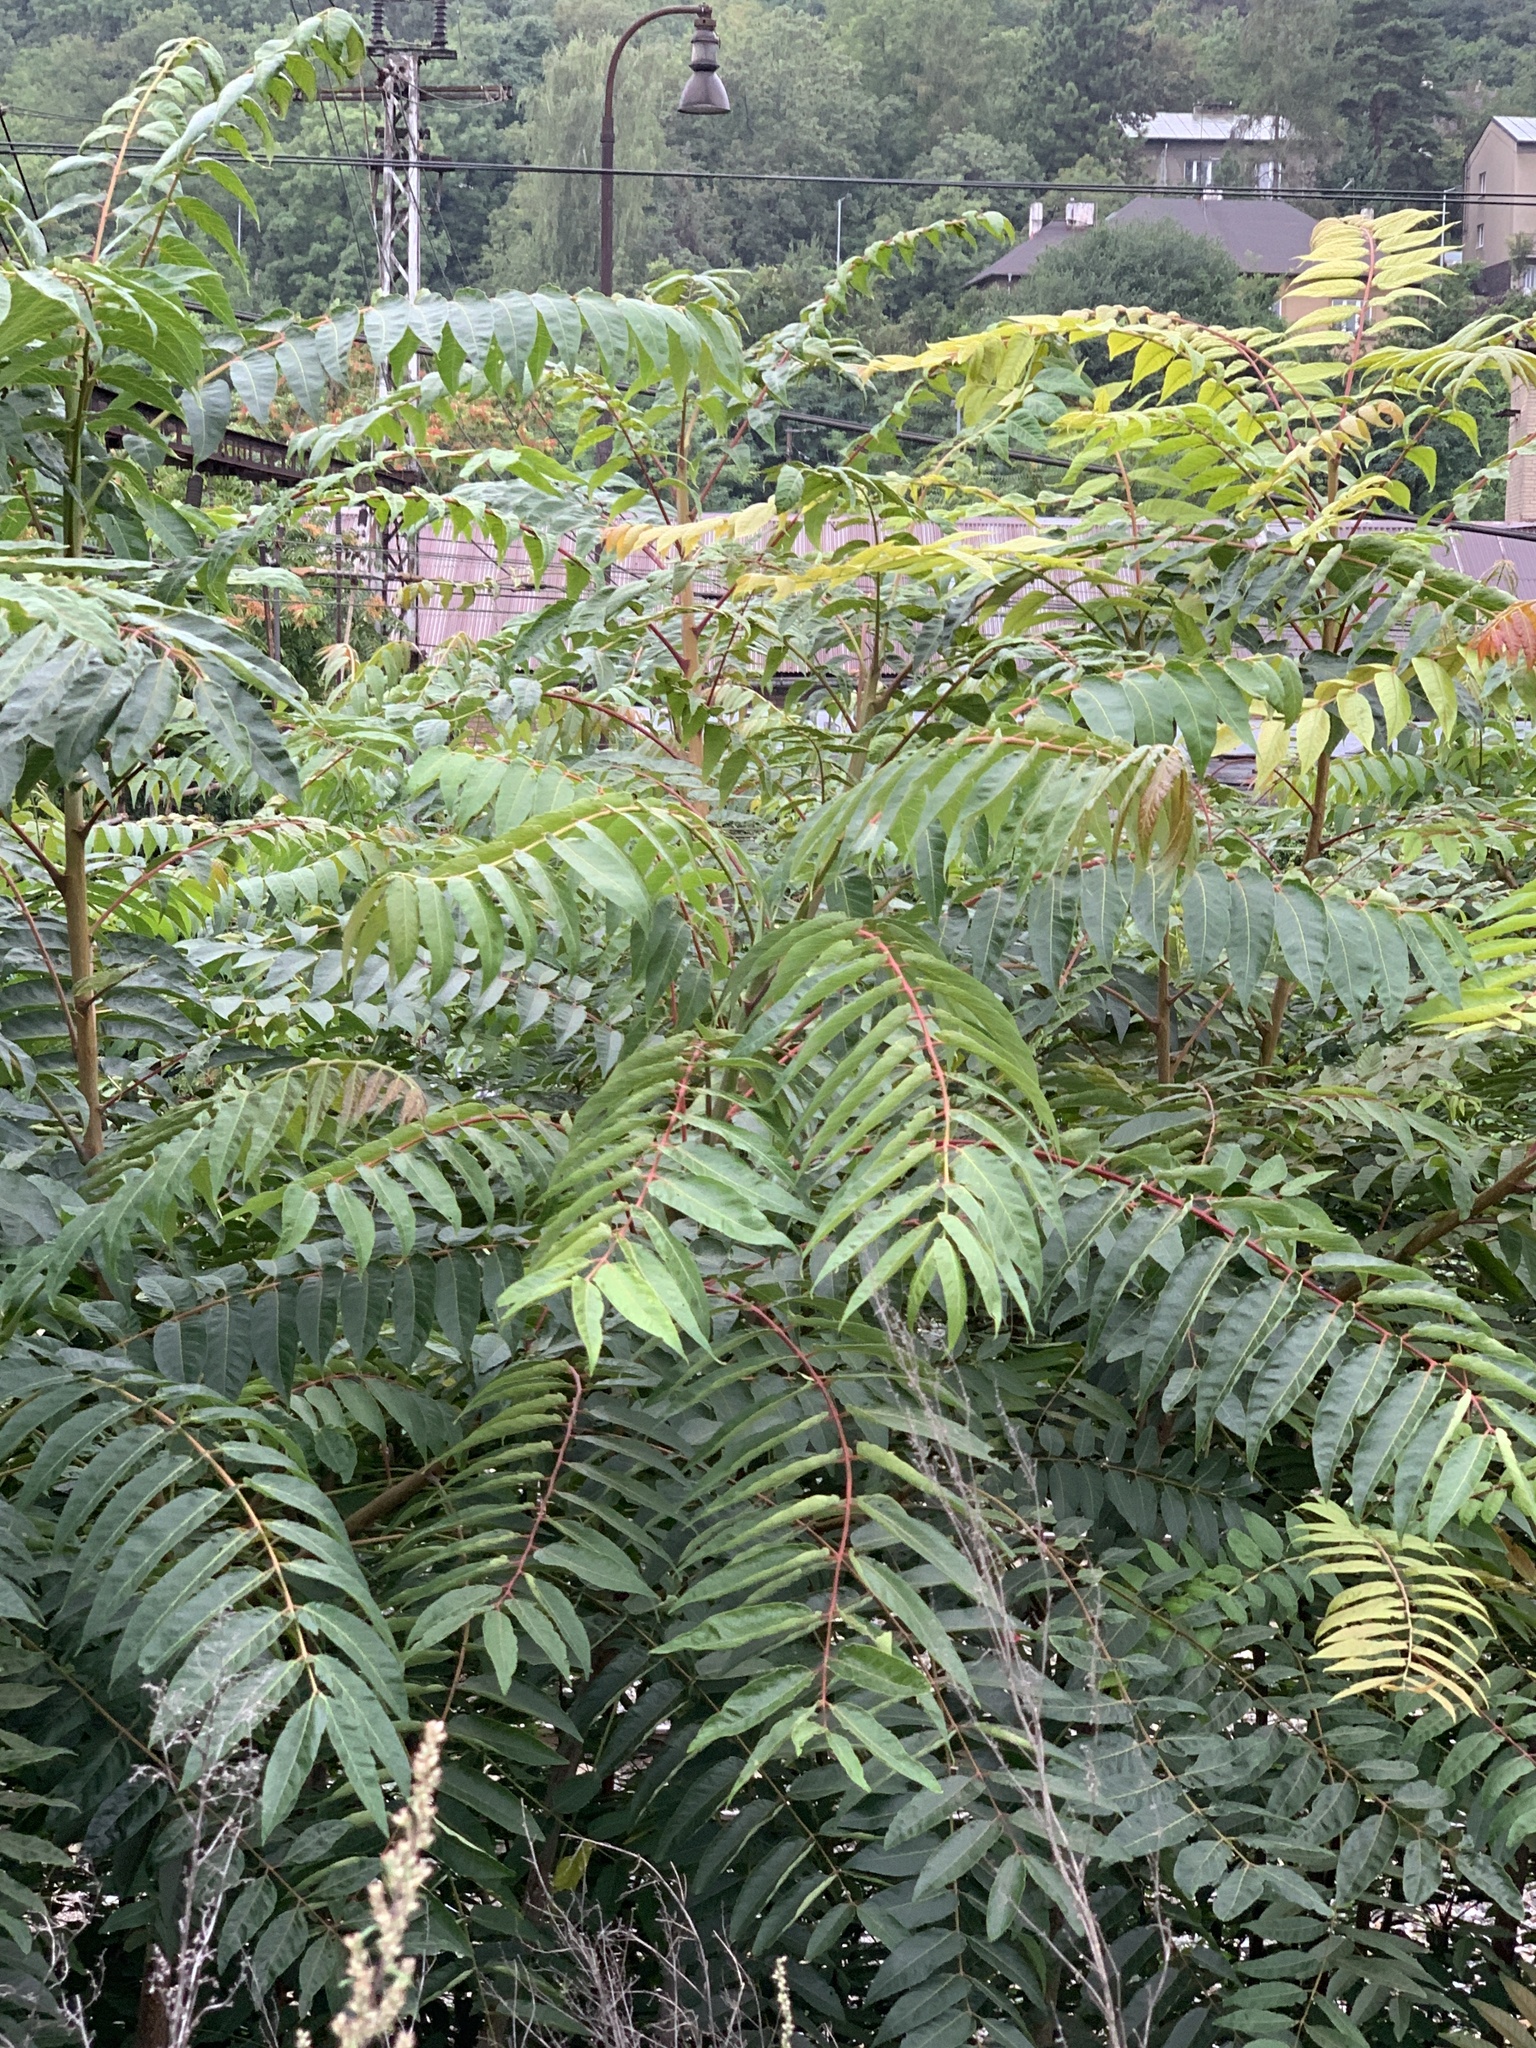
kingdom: Plantae
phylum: Tracheophyta
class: Magnoliopsida
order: Sapindales
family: Simaroubaceae
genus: Ailanthus
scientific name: Ailanthus altissima
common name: Tree-of-heaven
